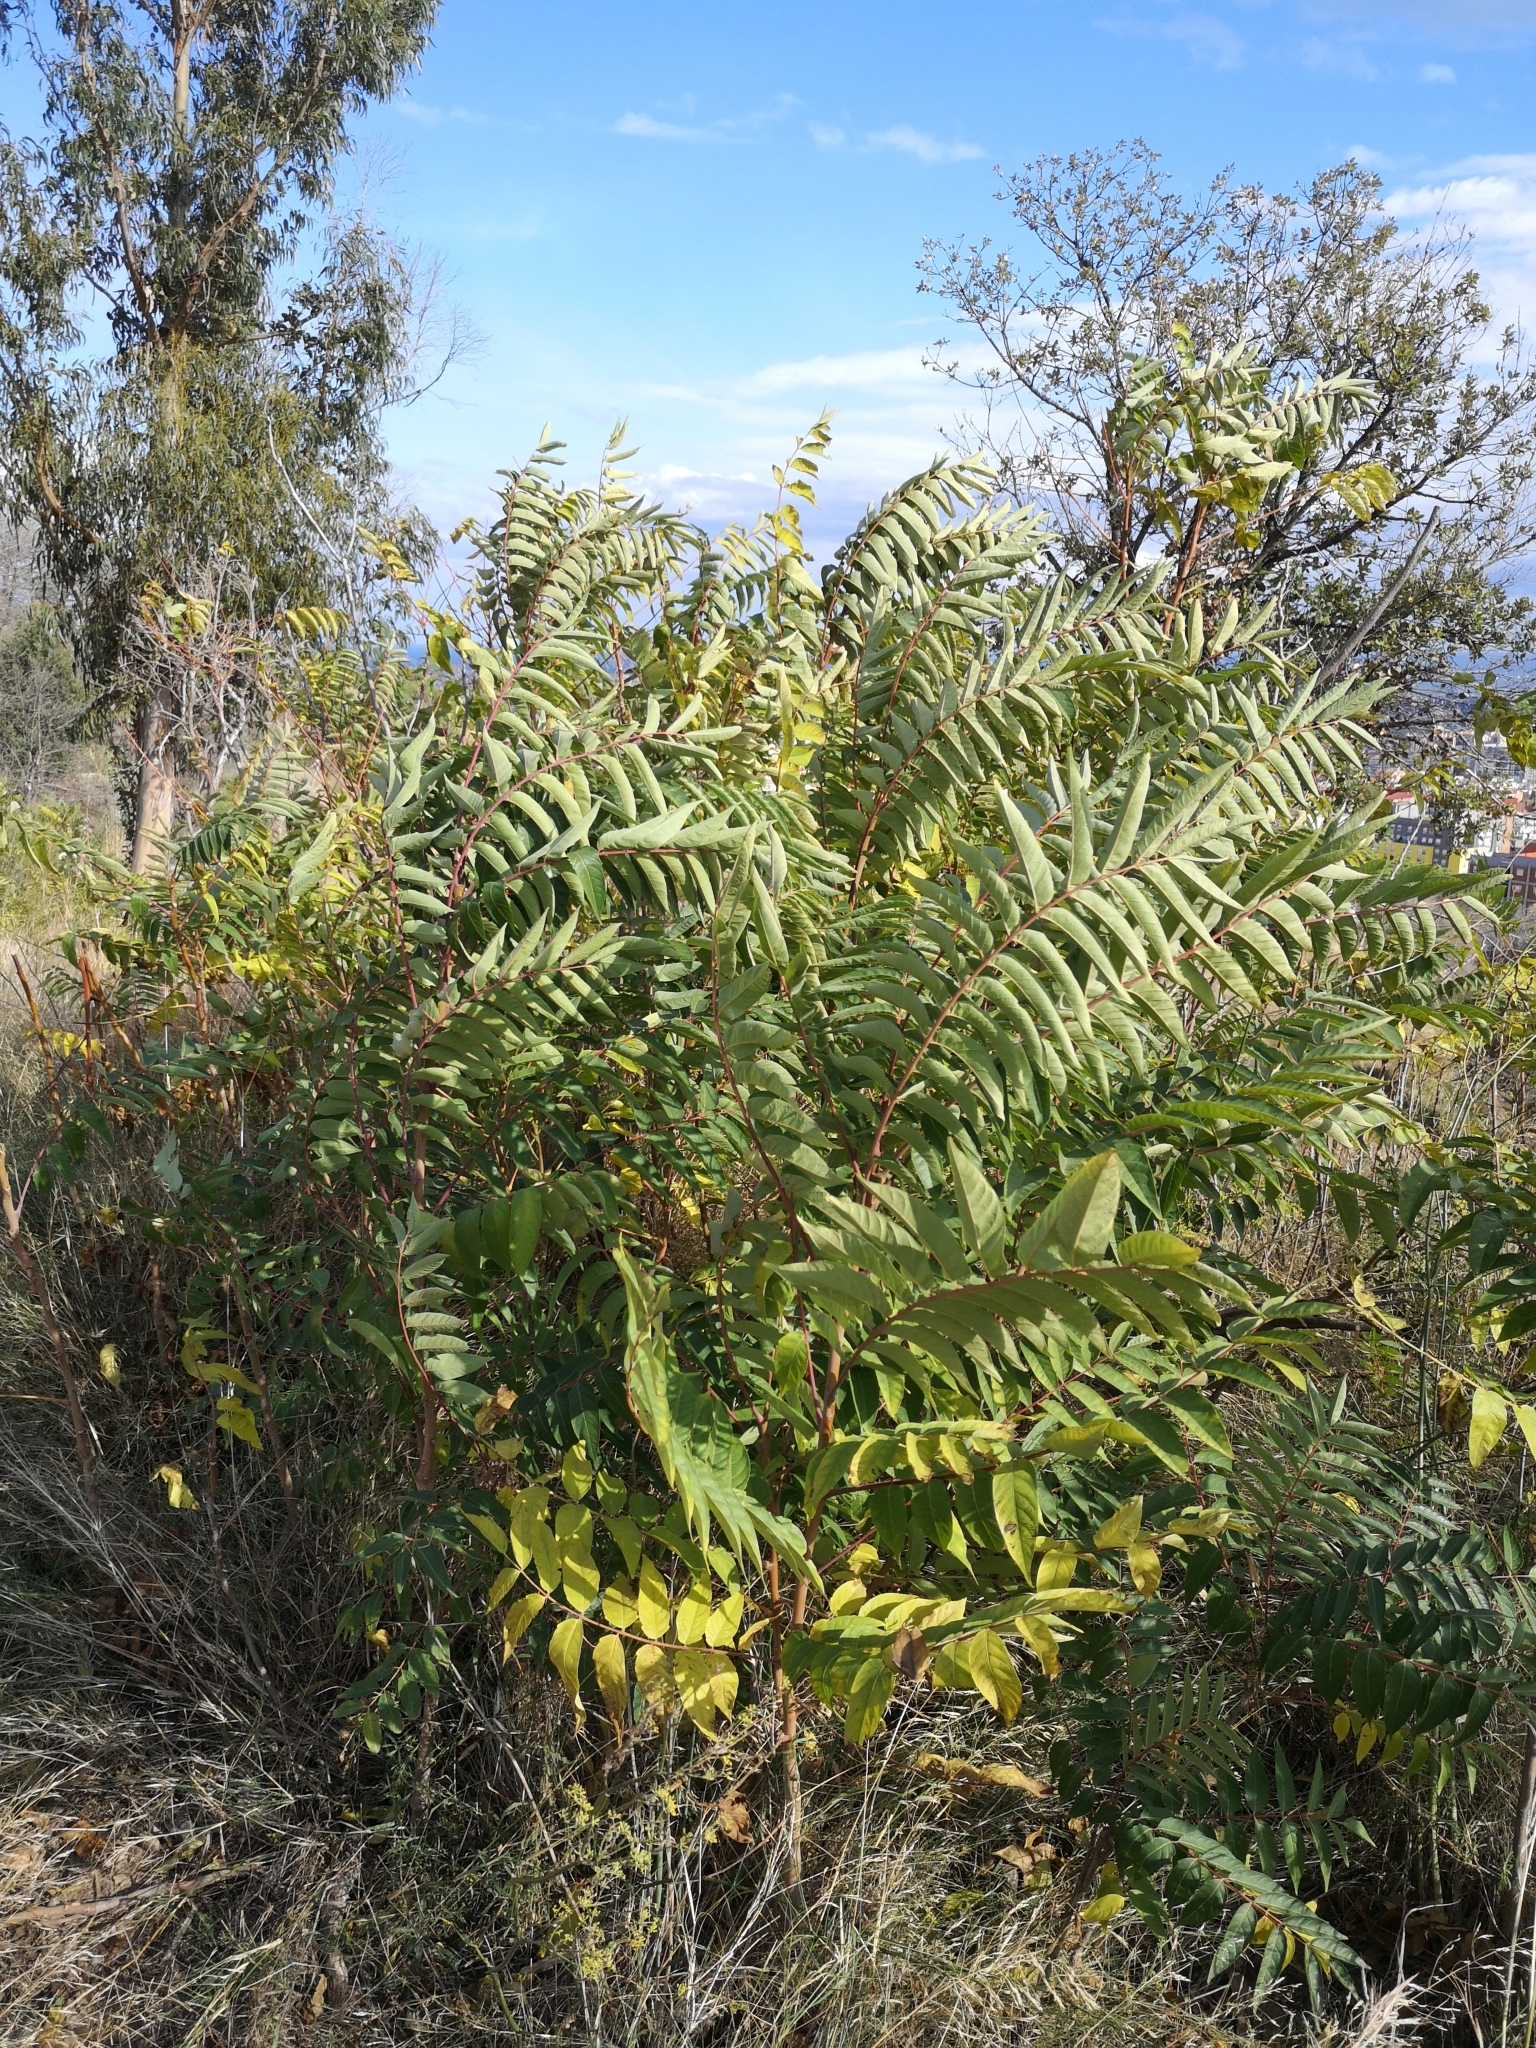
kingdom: Plantae
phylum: Tracheophyta
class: Magnoliopsida
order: Sapindales
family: Simaroubaceae
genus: Ailanthus
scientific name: Ailanthus altissima
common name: Tree-of-heaven
